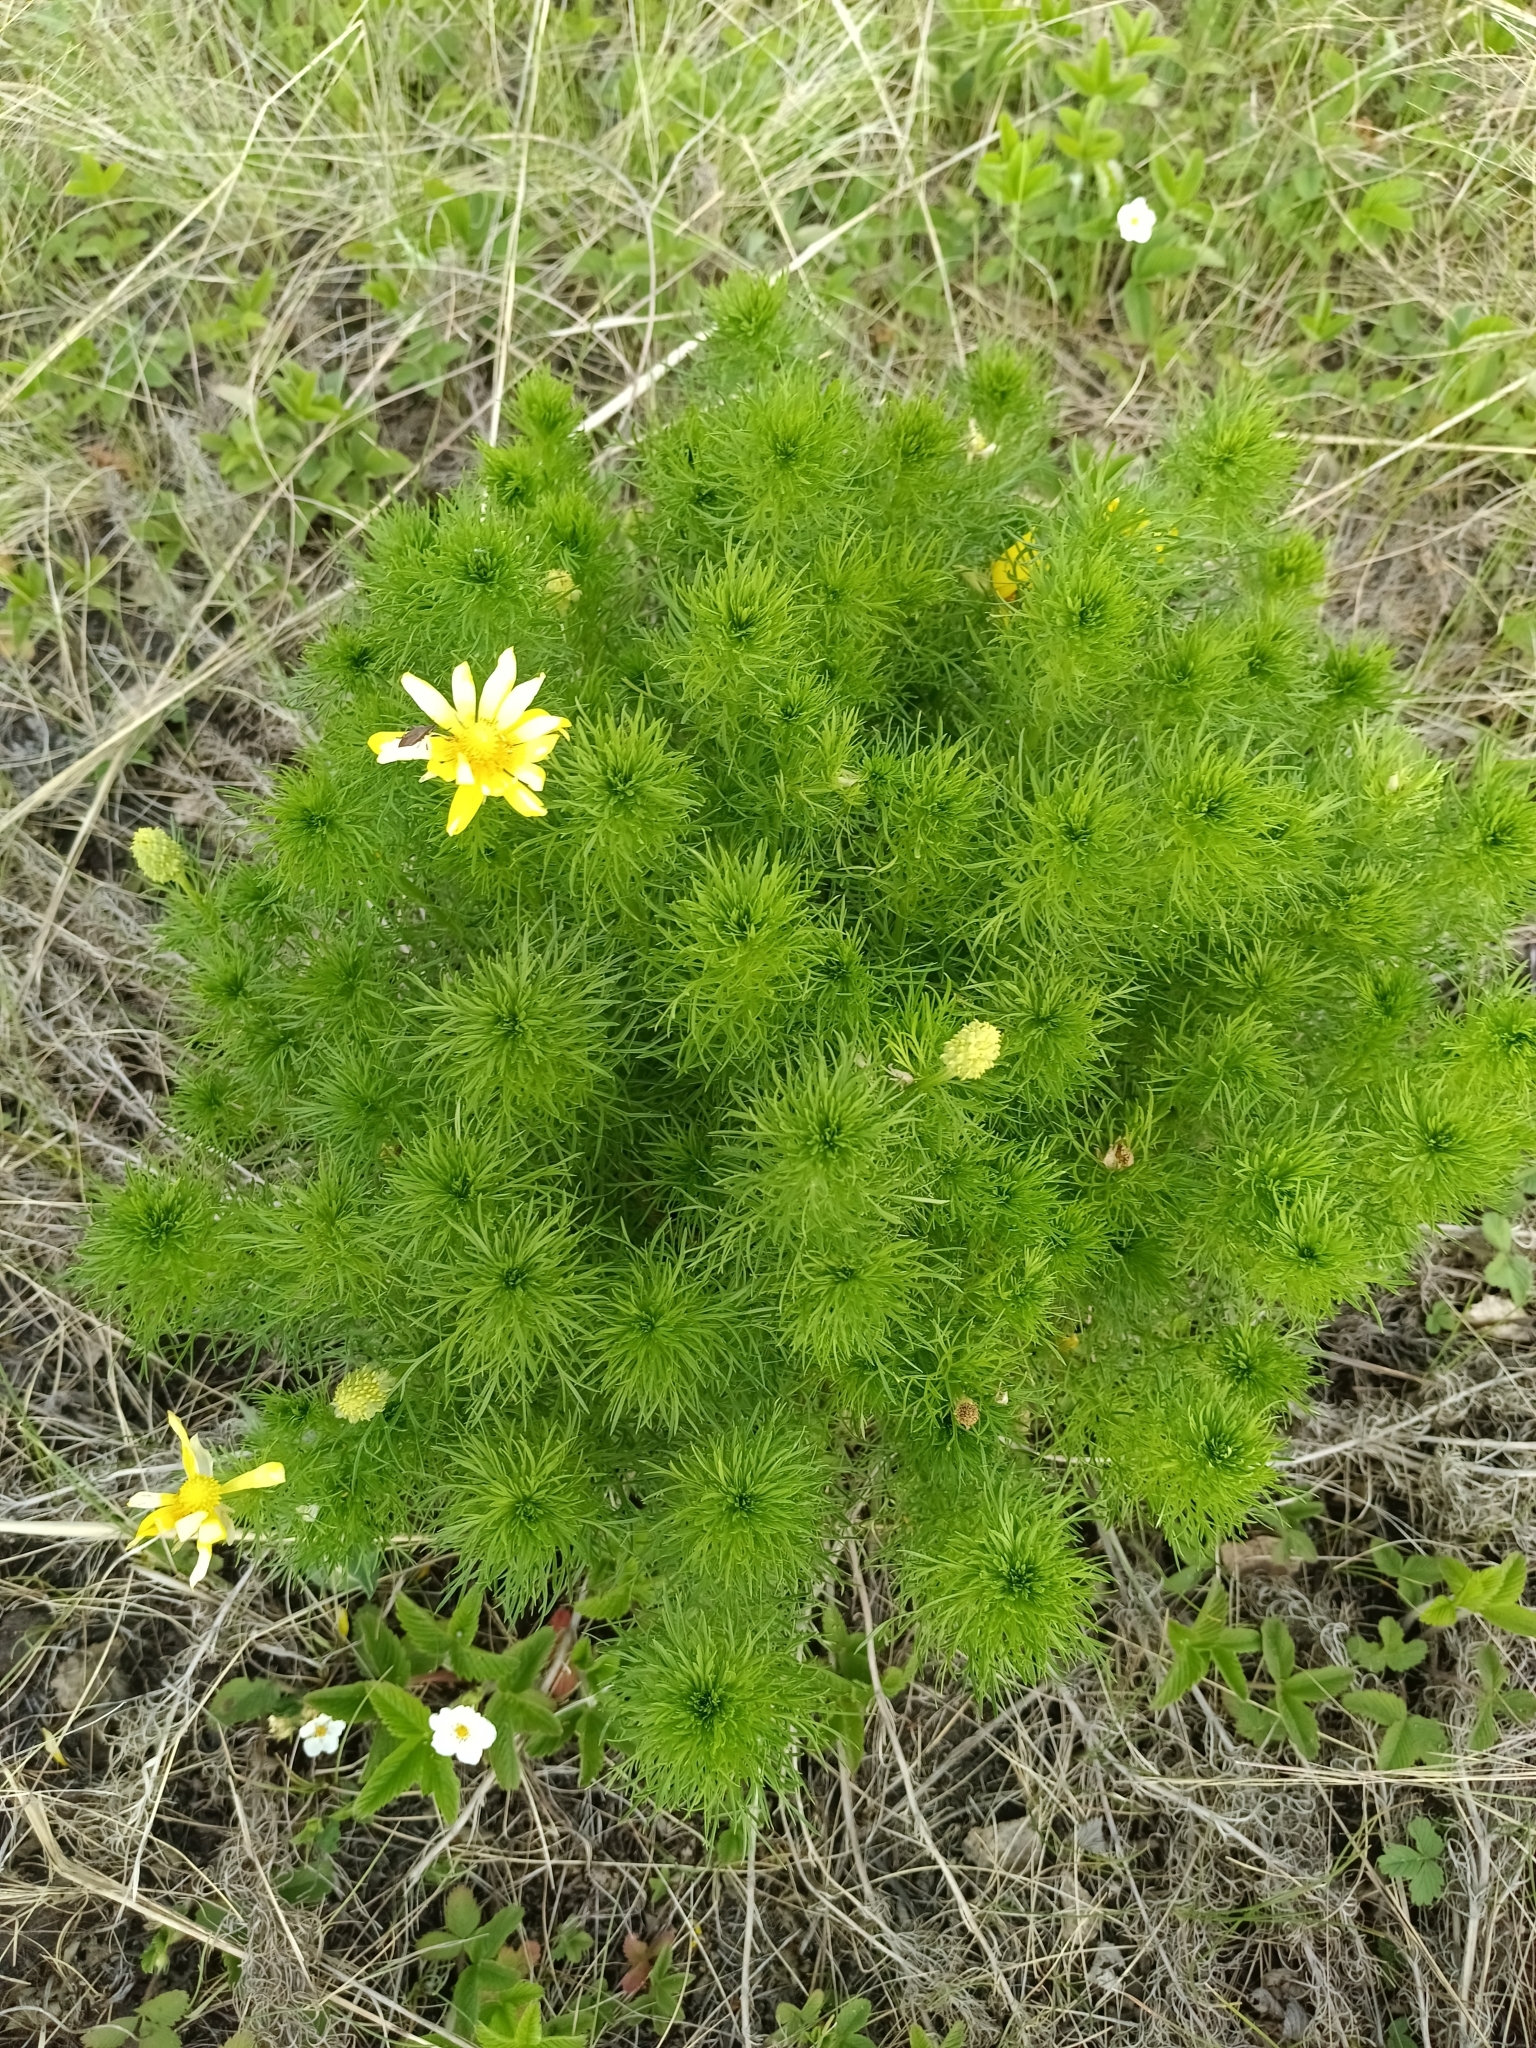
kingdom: Plantae
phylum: Tracheophyta
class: Magnoliopsida
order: Ranunculales
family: Ranunculaceae
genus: Adonis
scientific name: Adonis vernalis
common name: Yellow pheasants-eye
